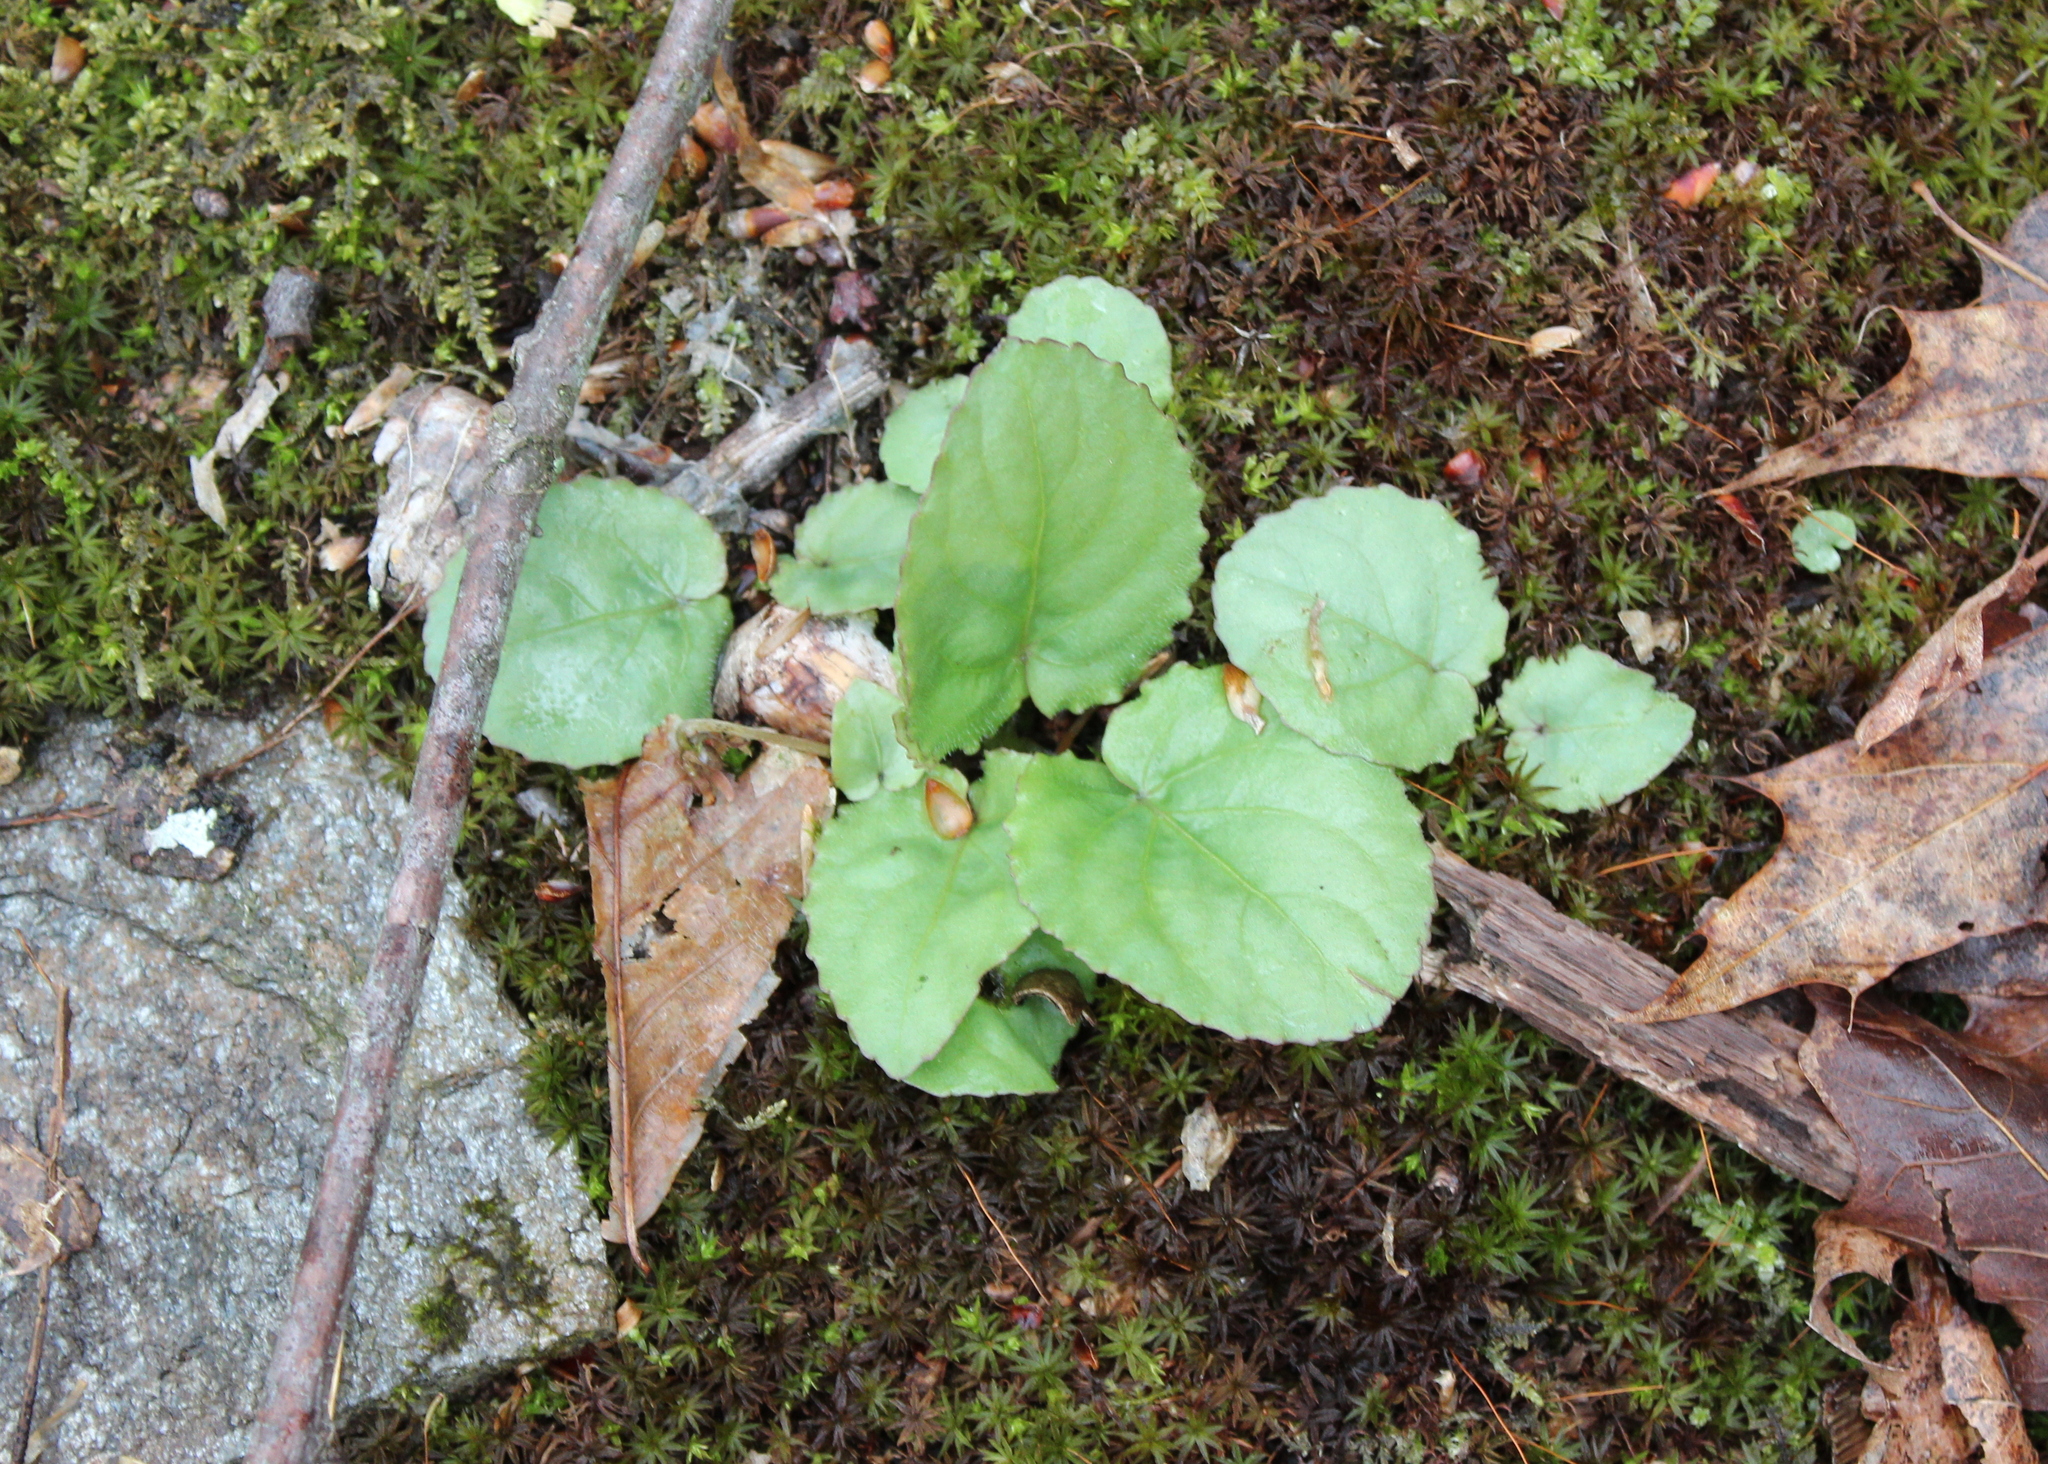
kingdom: Plantae
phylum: Tracheophyta
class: Magnoliopsida
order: Malpighiales
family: Violaceae
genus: Viola
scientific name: Viola rotundifolia
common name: Early yellow violet
